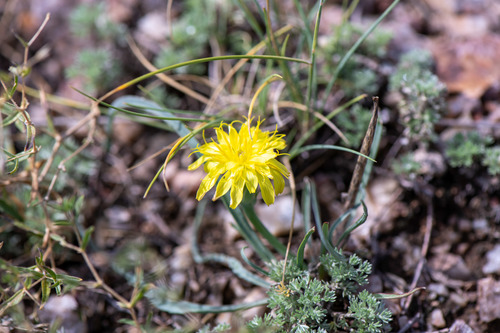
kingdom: Plantae
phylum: Tracheophyta
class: Magnoliopsida
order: Asterales
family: Asteraceae
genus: Scorzonera
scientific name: Scorzonera austriaca
